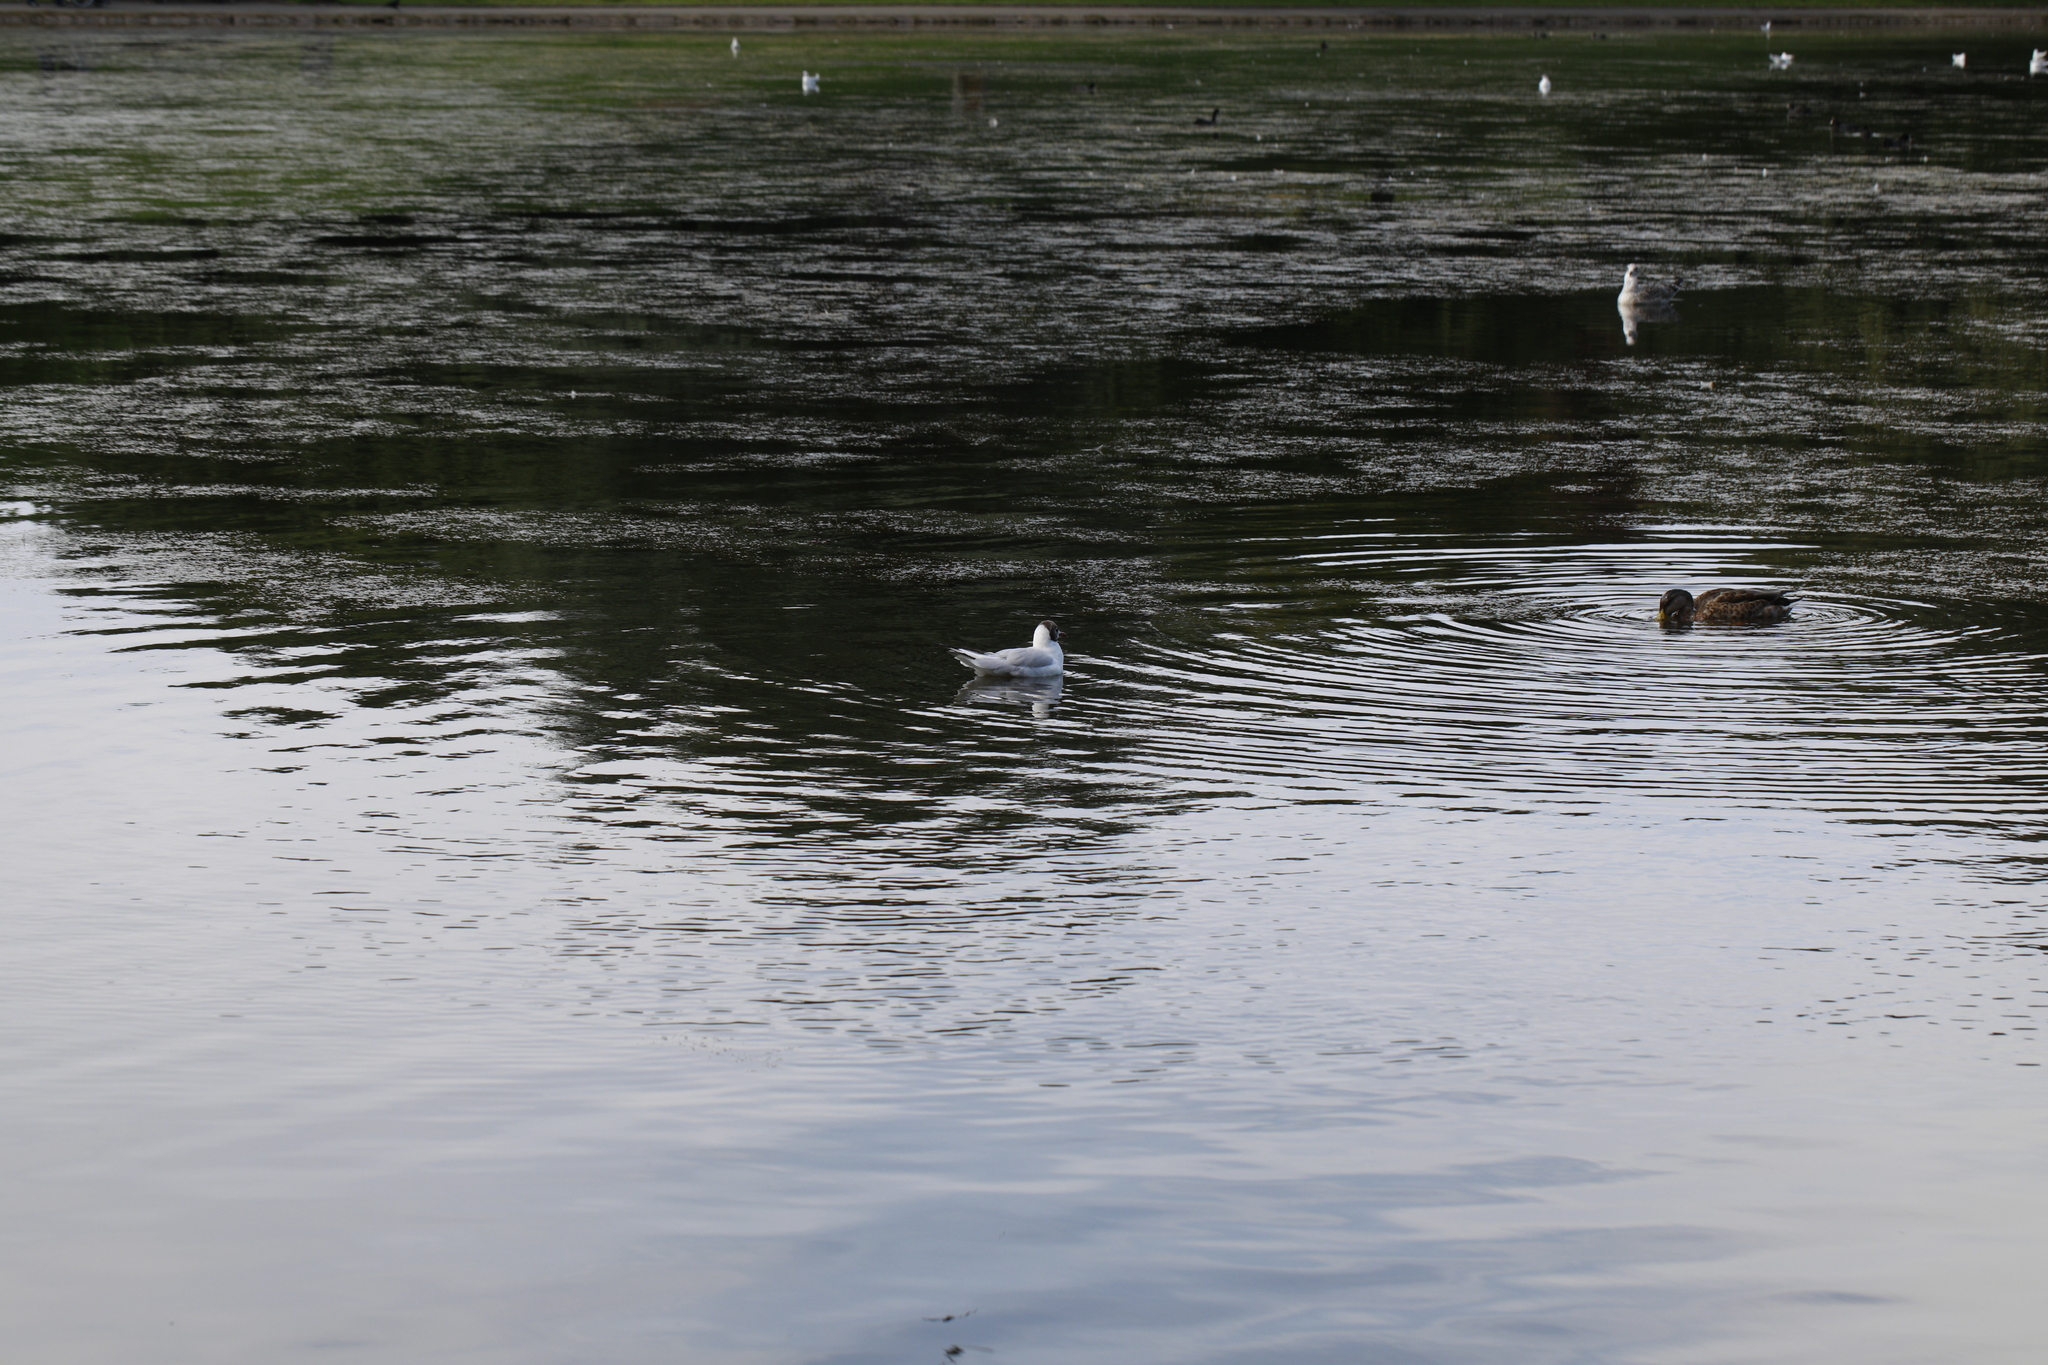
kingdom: Animalia
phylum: Chordata
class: Aves
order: Charadriiformes
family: Laridae
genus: Chroicocephalus
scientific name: Chroicocephalus ridibundus
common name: Black-headed gull
